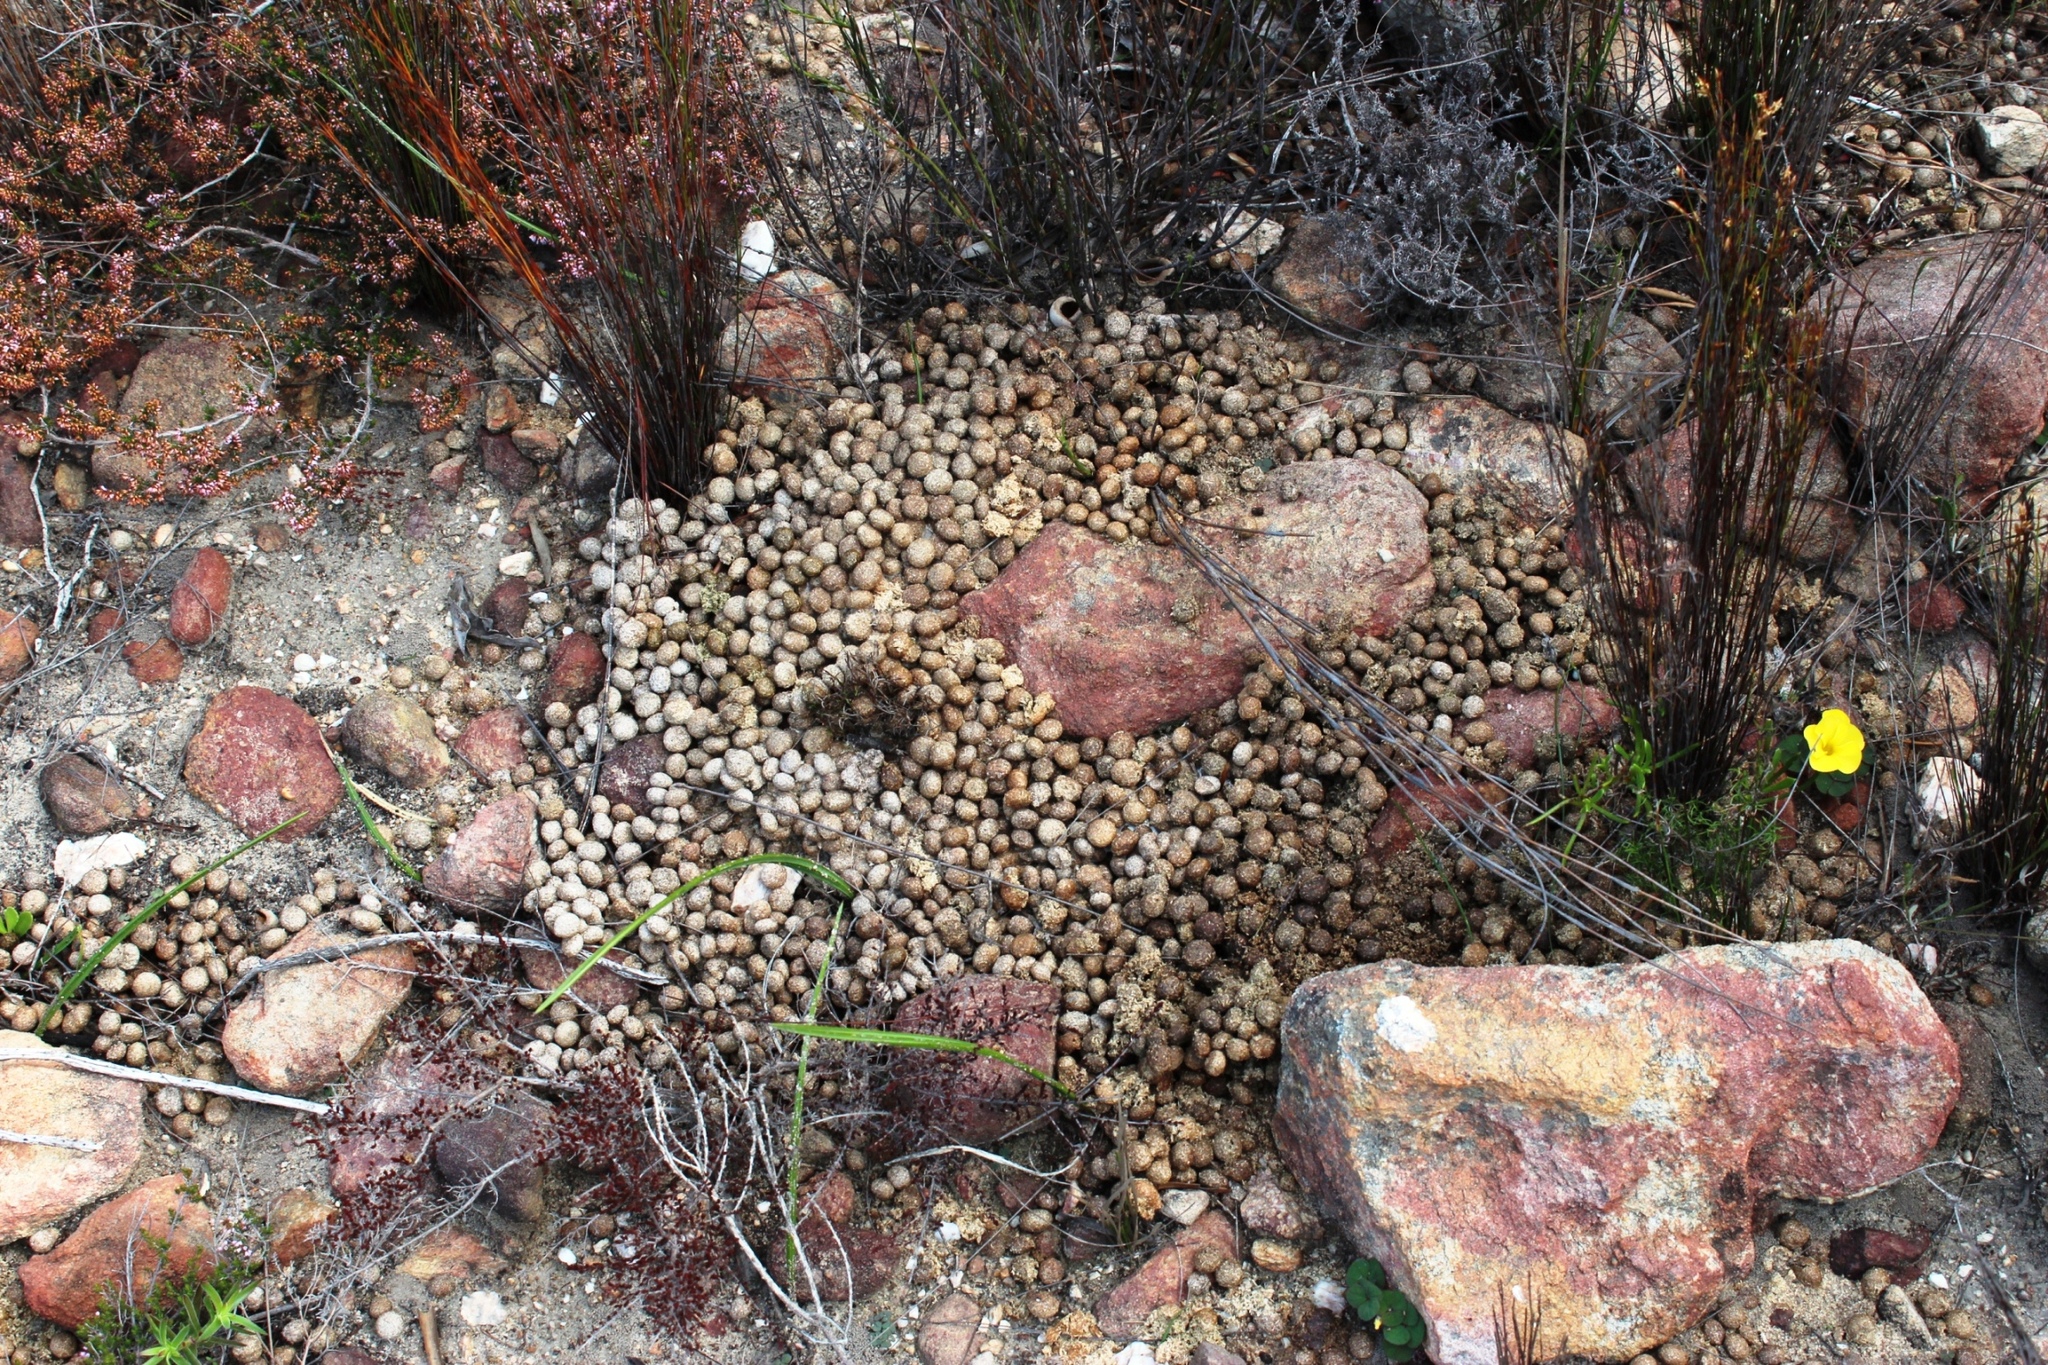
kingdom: Animalia
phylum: Chordata
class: Mammalia
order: Lagomorpha
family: Leporidae
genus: Pronolagus
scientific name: Pronolagus saundersiae
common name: Hewitt's red rock hare
